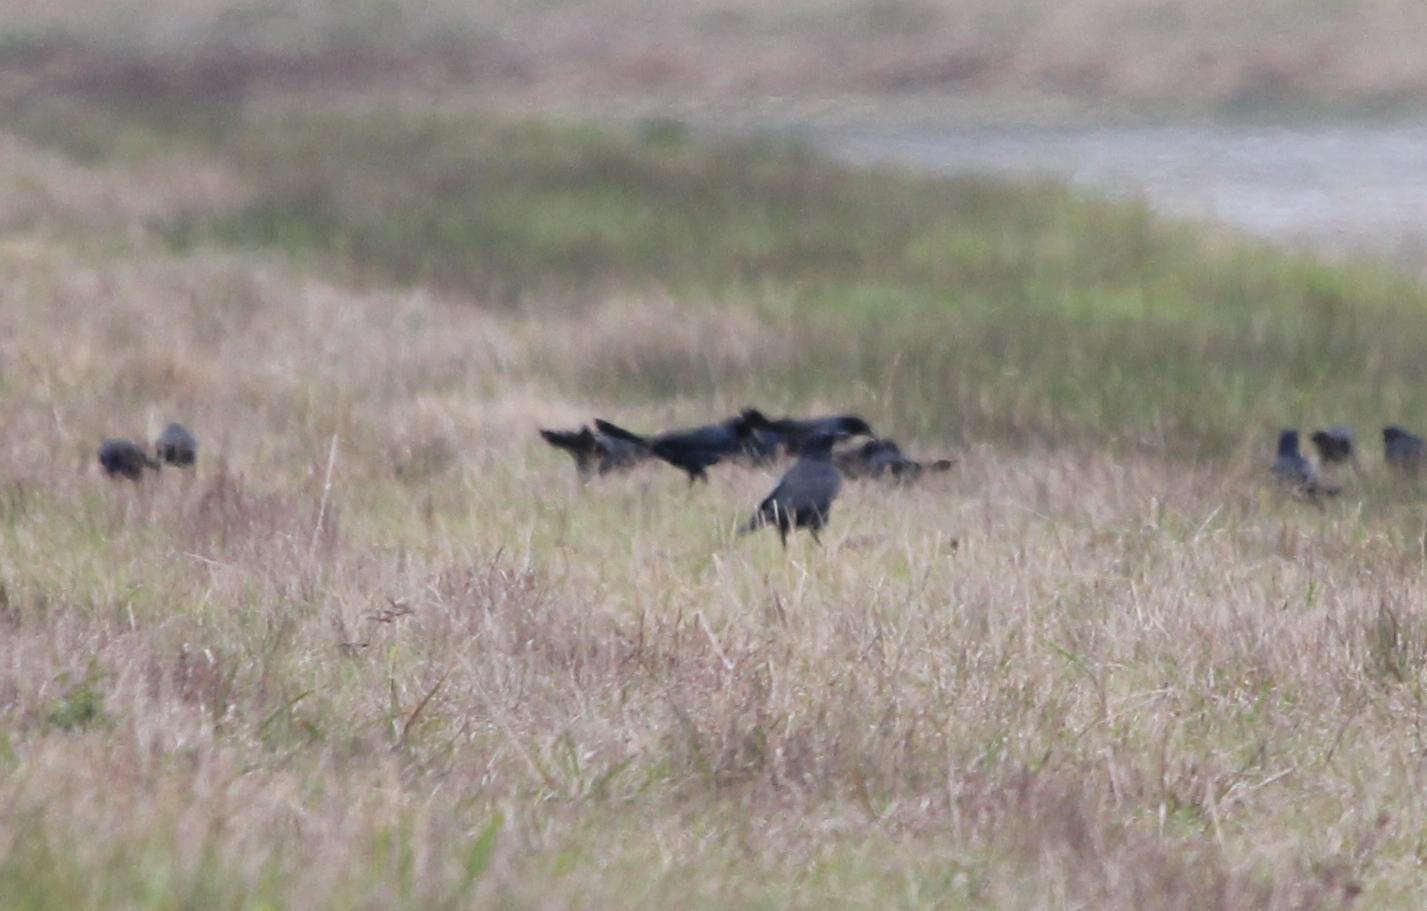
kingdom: Animalia
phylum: Chordata
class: Aves
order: Passeriformes
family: Icteridae
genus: Quiscalus
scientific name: Quiscalus major
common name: Boat-tailed grackle
